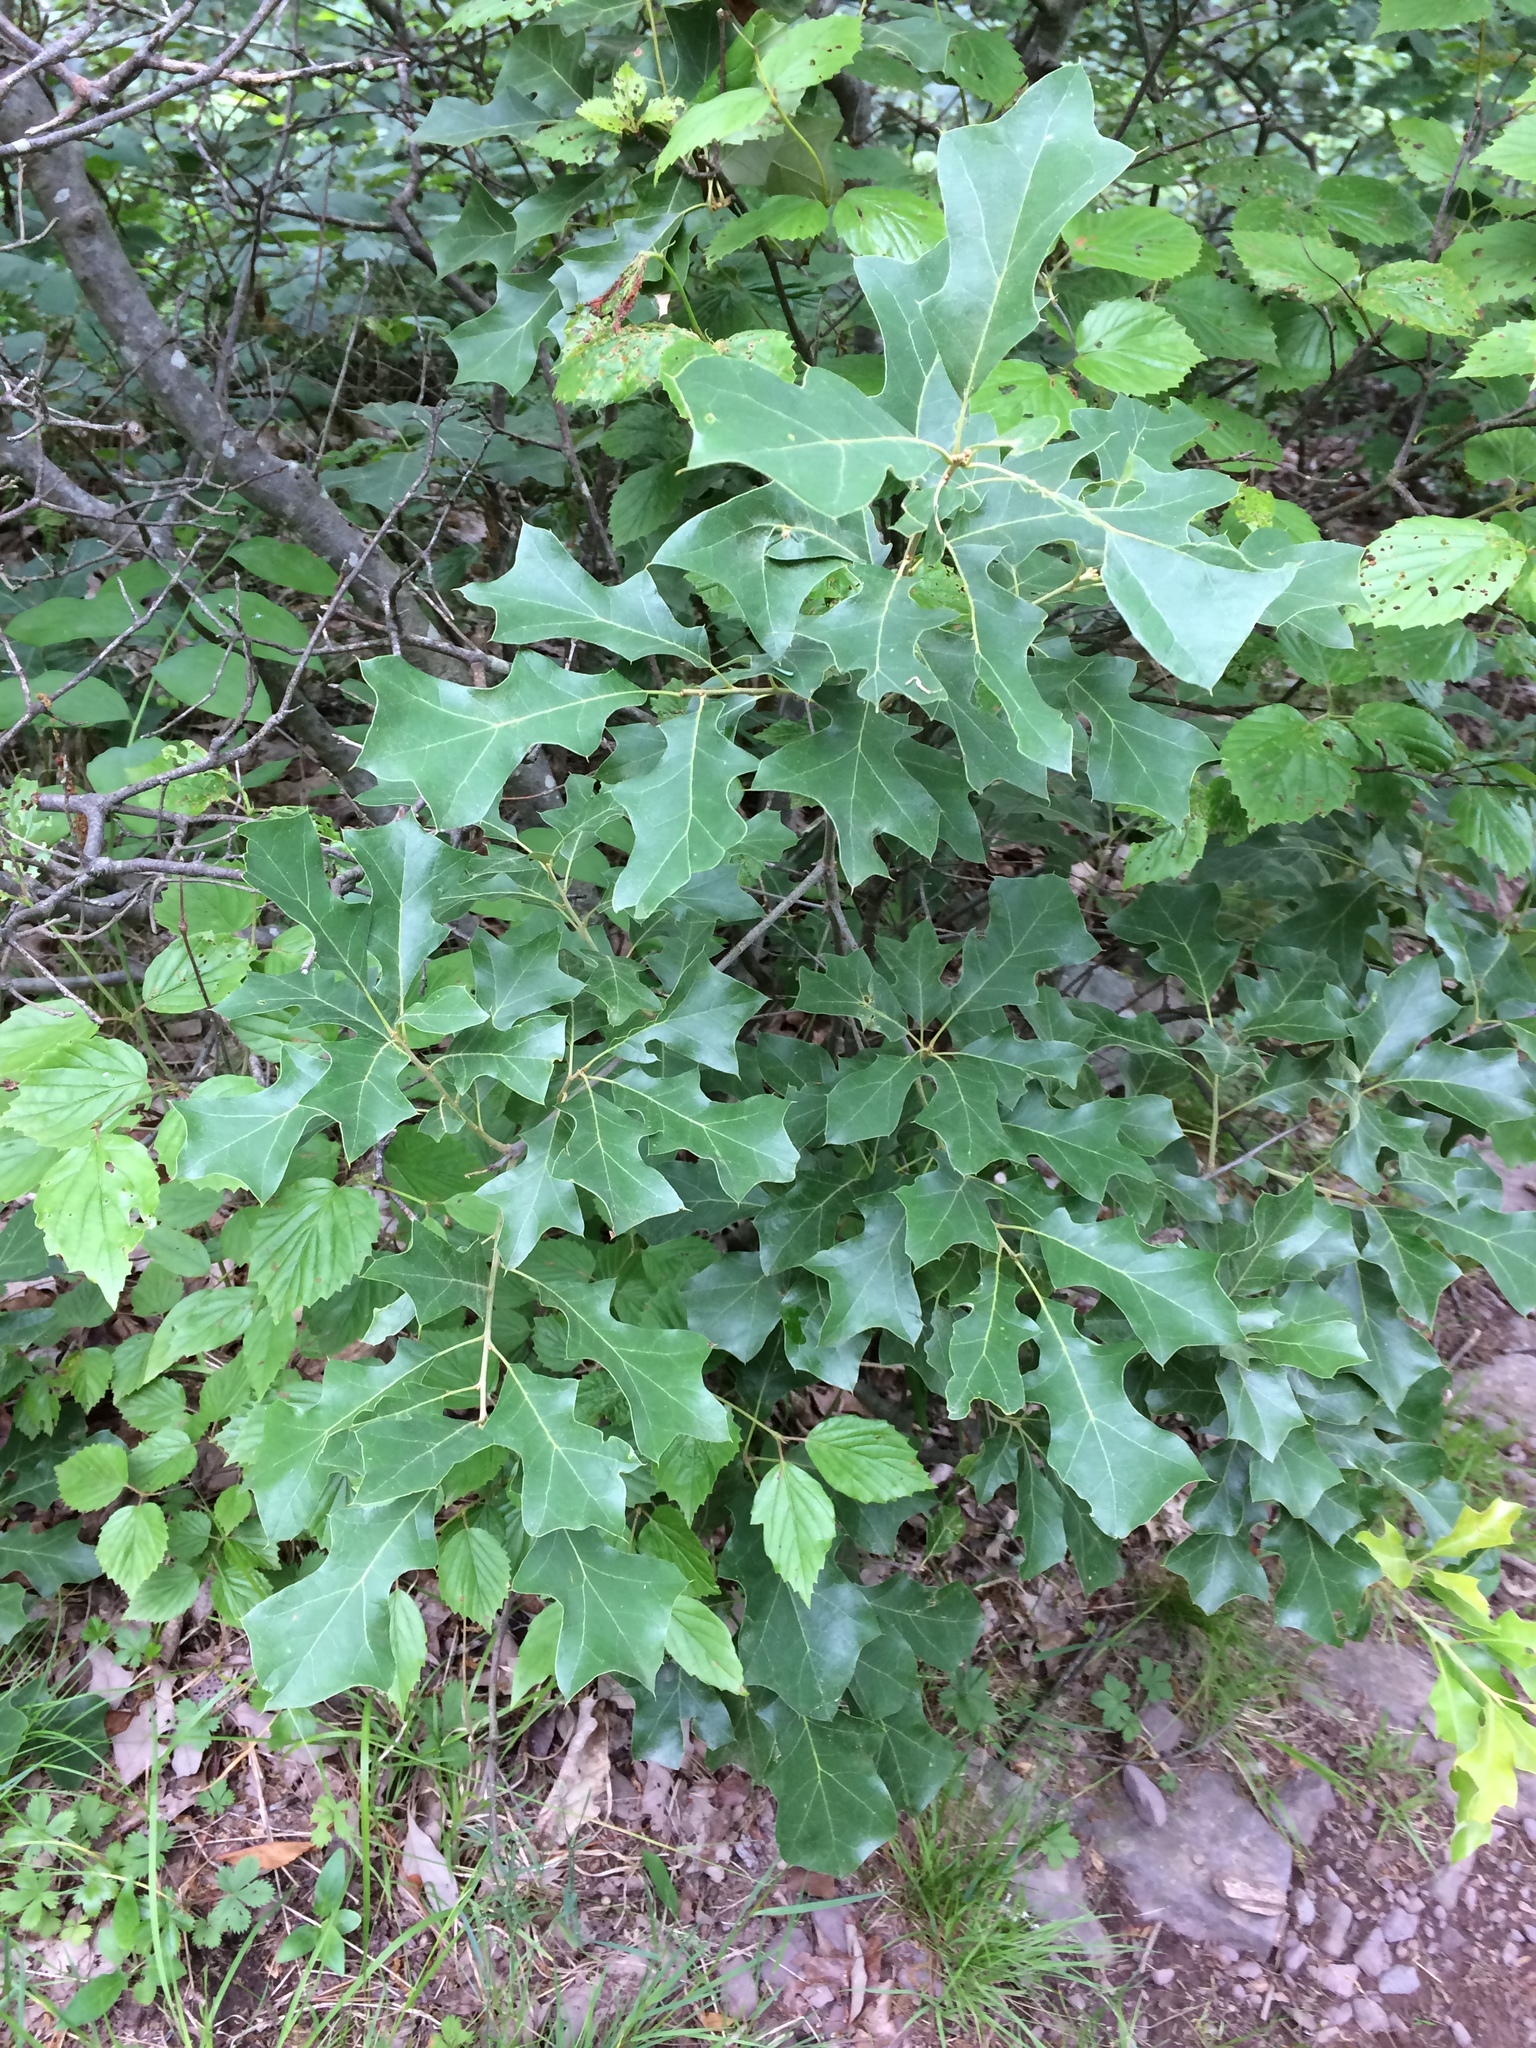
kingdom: Plantae
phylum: Tracheophyta
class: Magnoliopsida
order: Fagales
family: Fagaceae
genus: Quercus
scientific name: Quercus ilicifolia
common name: Bear oak
